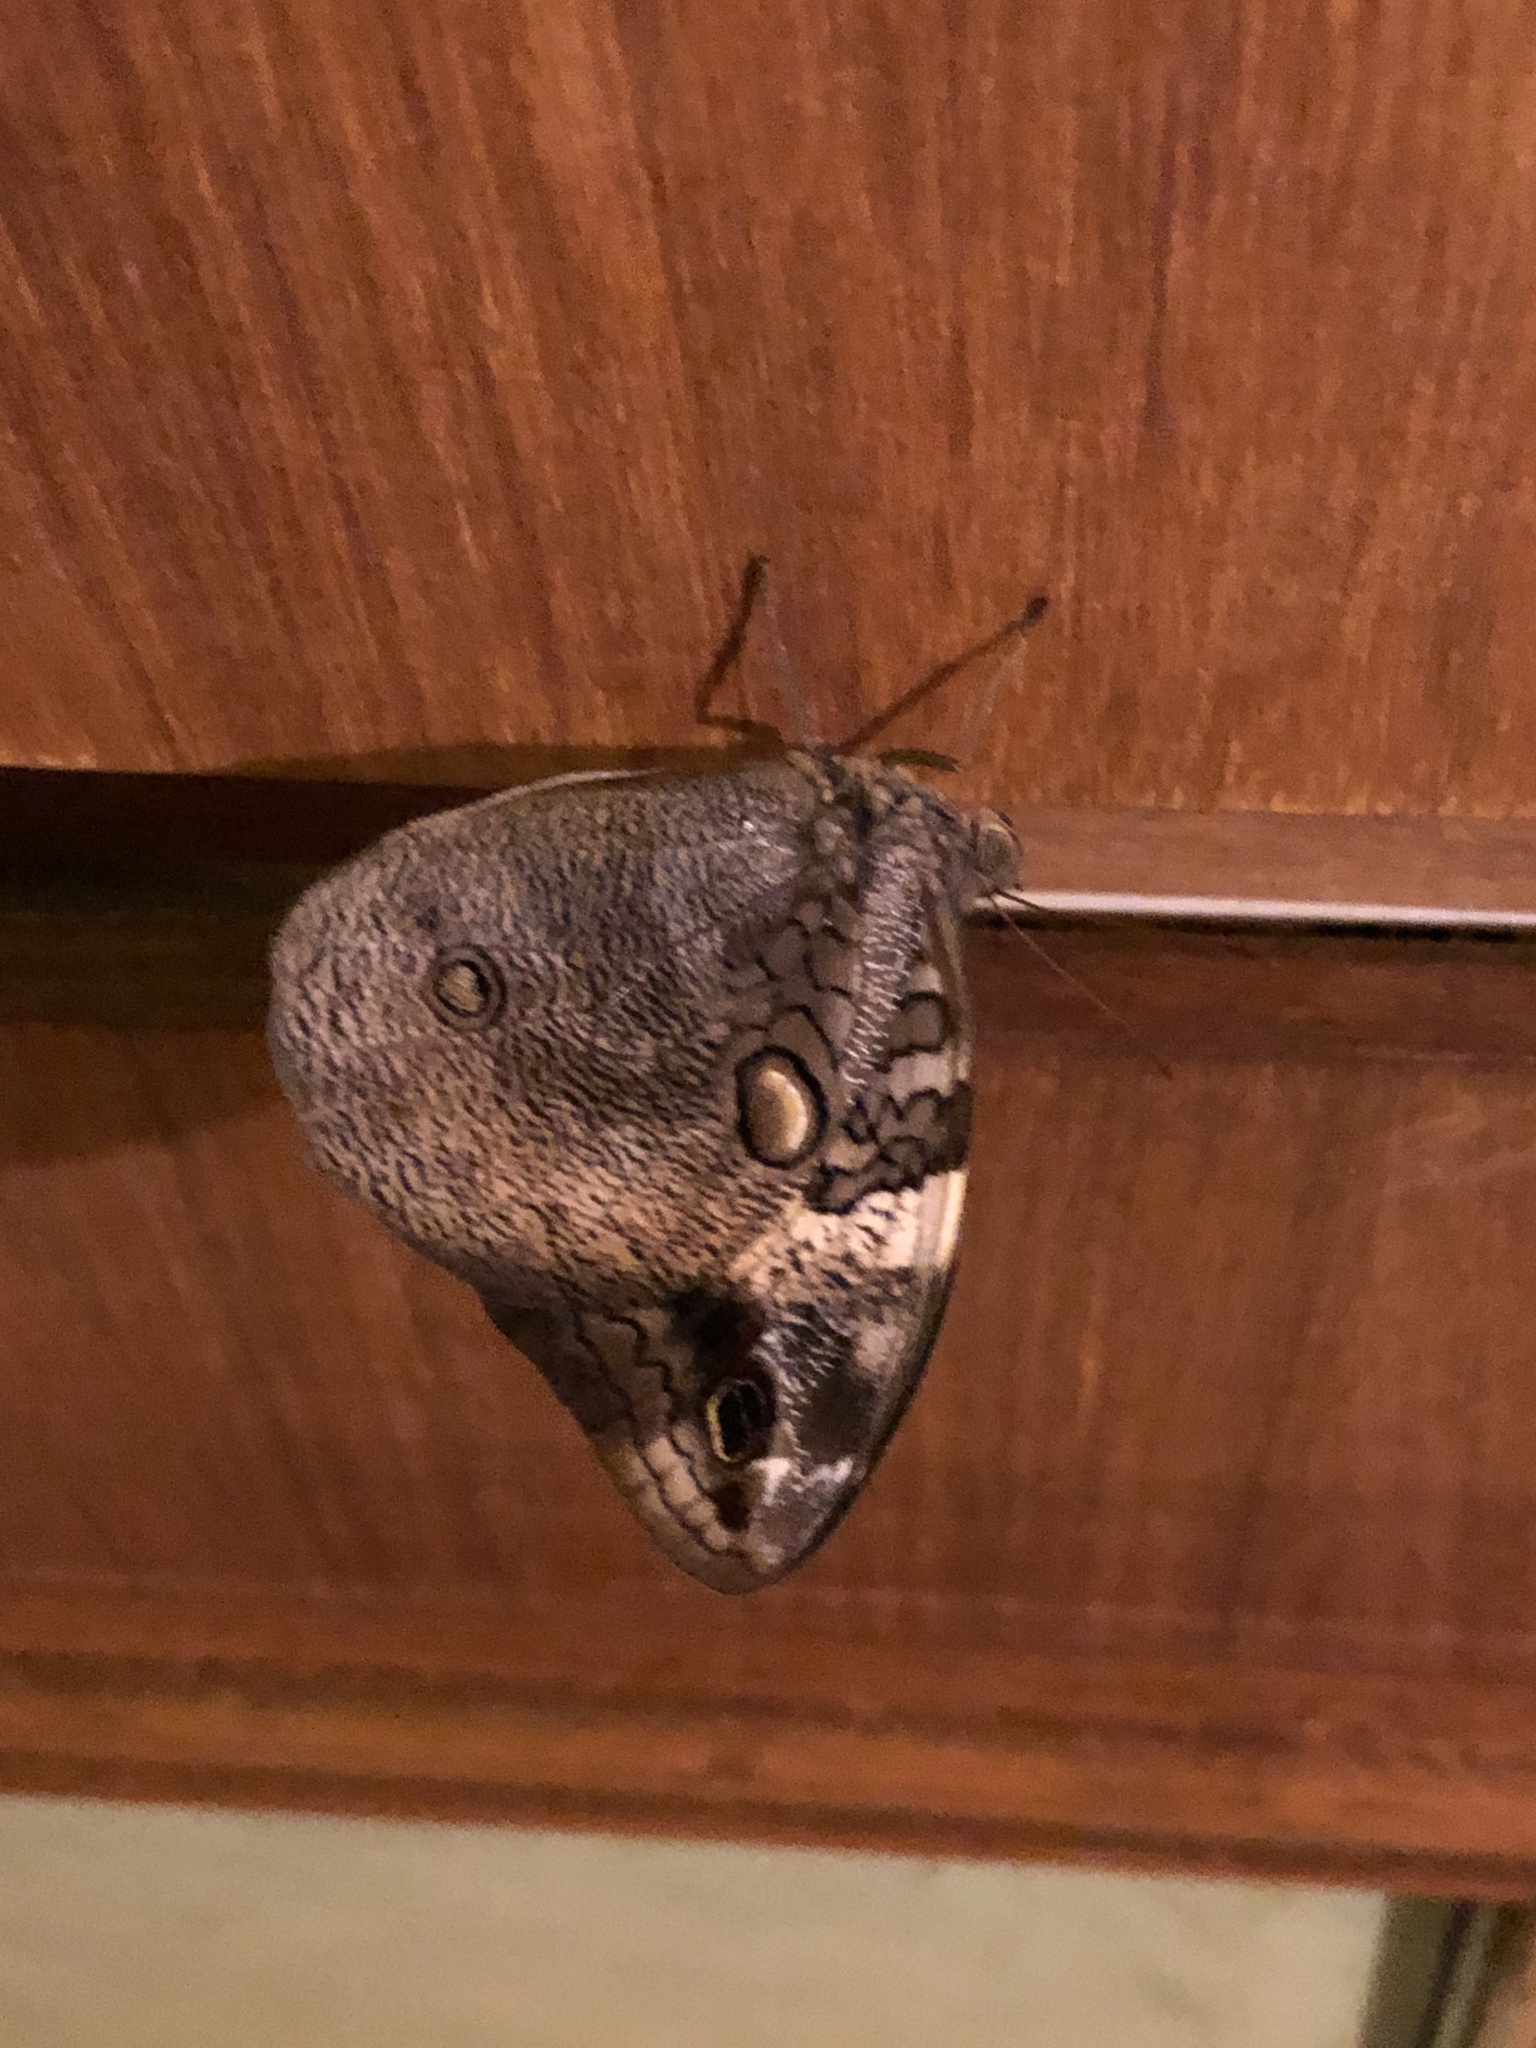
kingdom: Animalia
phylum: Arthropoda
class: Insecta
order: Lepidoptera
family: Nymphalidae
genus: Opsiphanes
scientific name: Opsiphanes invirae
